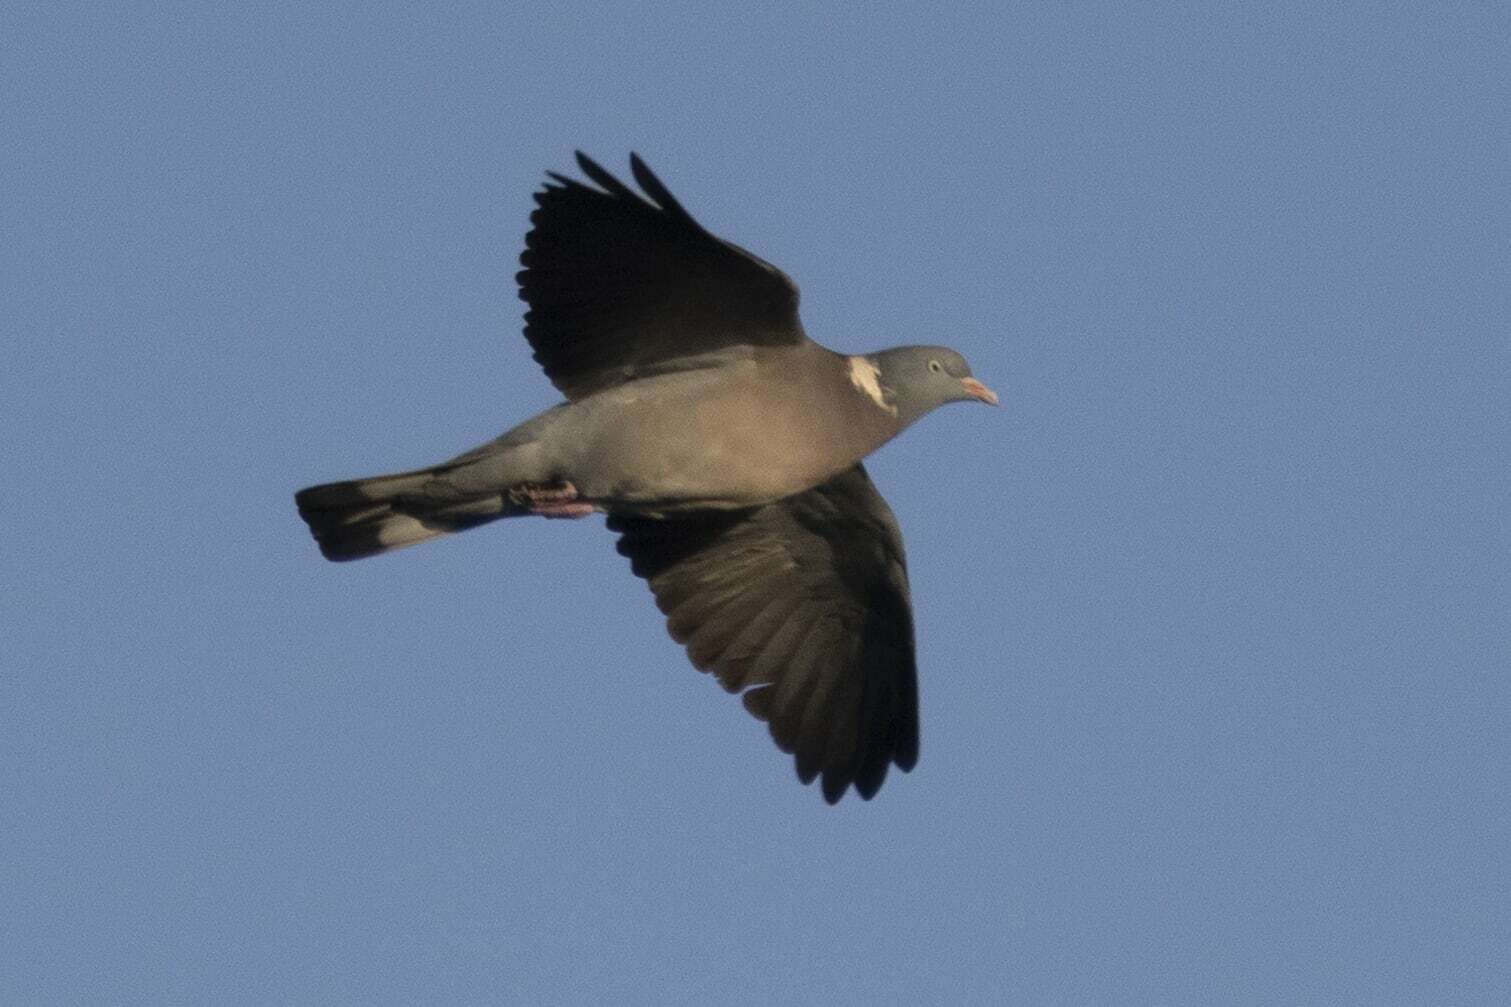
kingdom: Animalia
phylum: Chordata
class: Aves
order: Columbiformes
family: Columbidae
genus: Columba
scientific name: Columba palumbus
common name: Common wood pigeon
